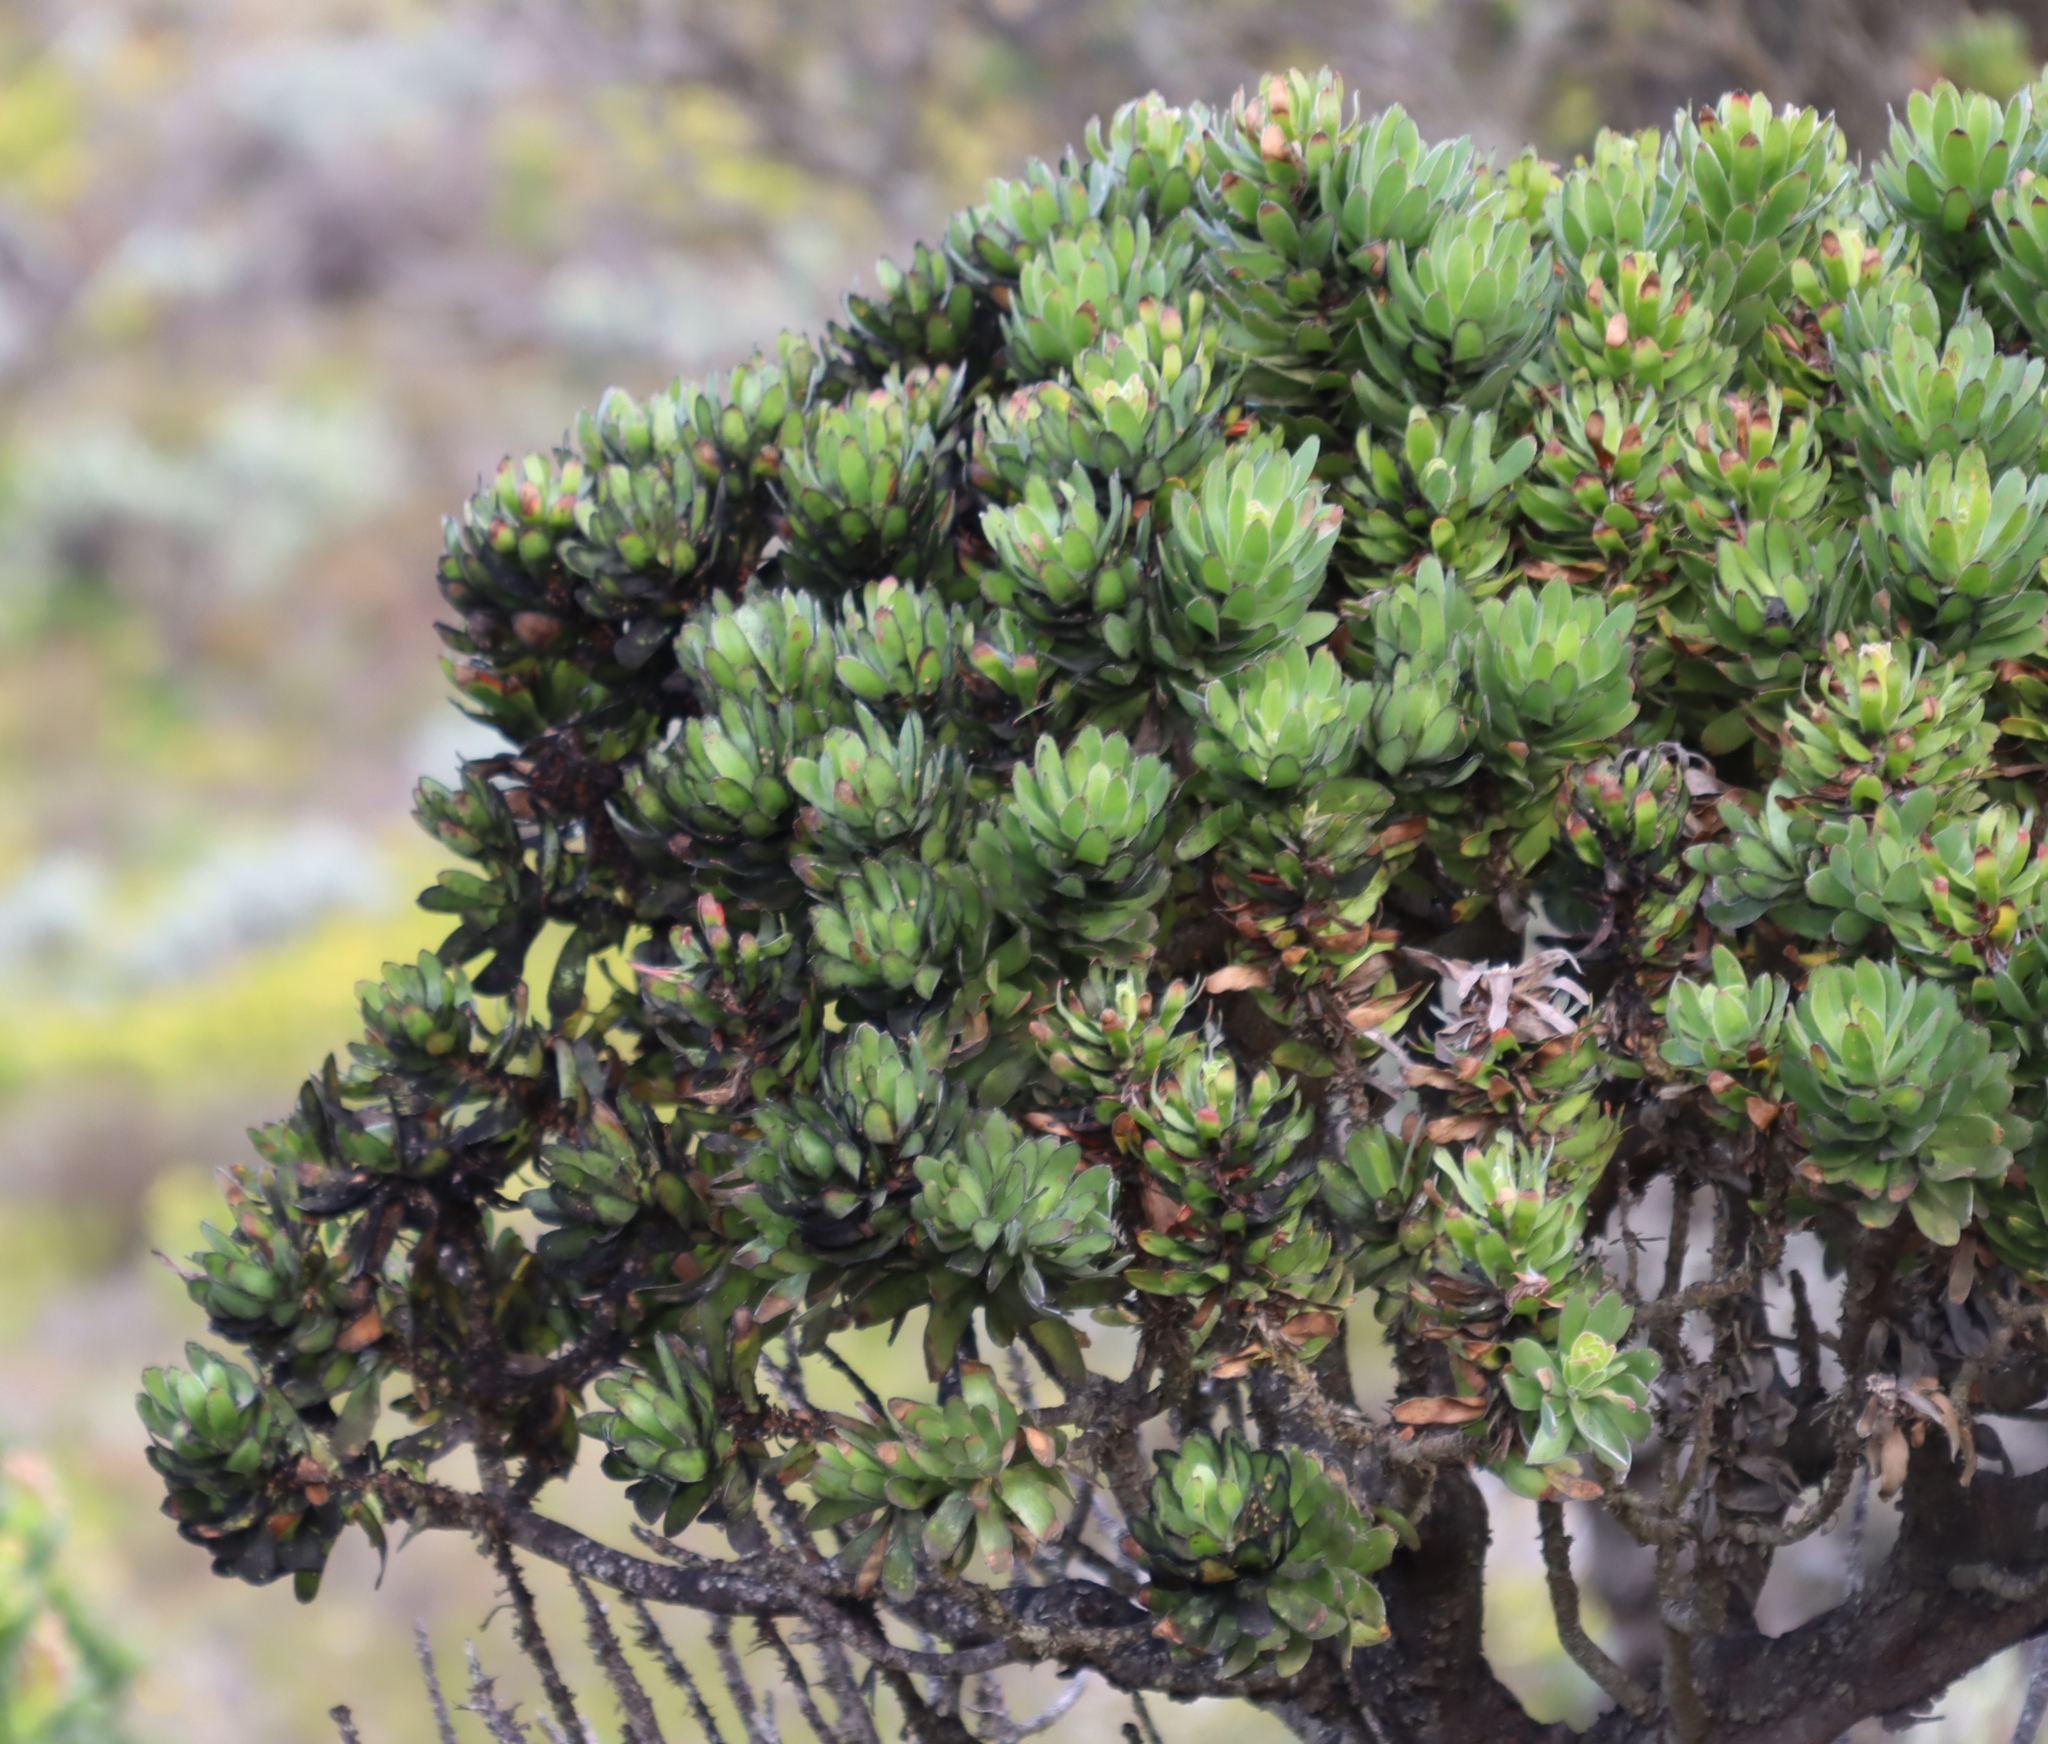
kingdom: Plantae
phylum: Tracheophyta
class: Magnoliopsida
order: Proteales
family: Proteaceae
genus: Mimetes
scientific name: Mimetes fimbriifolius
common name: Fringed bottlebrush
